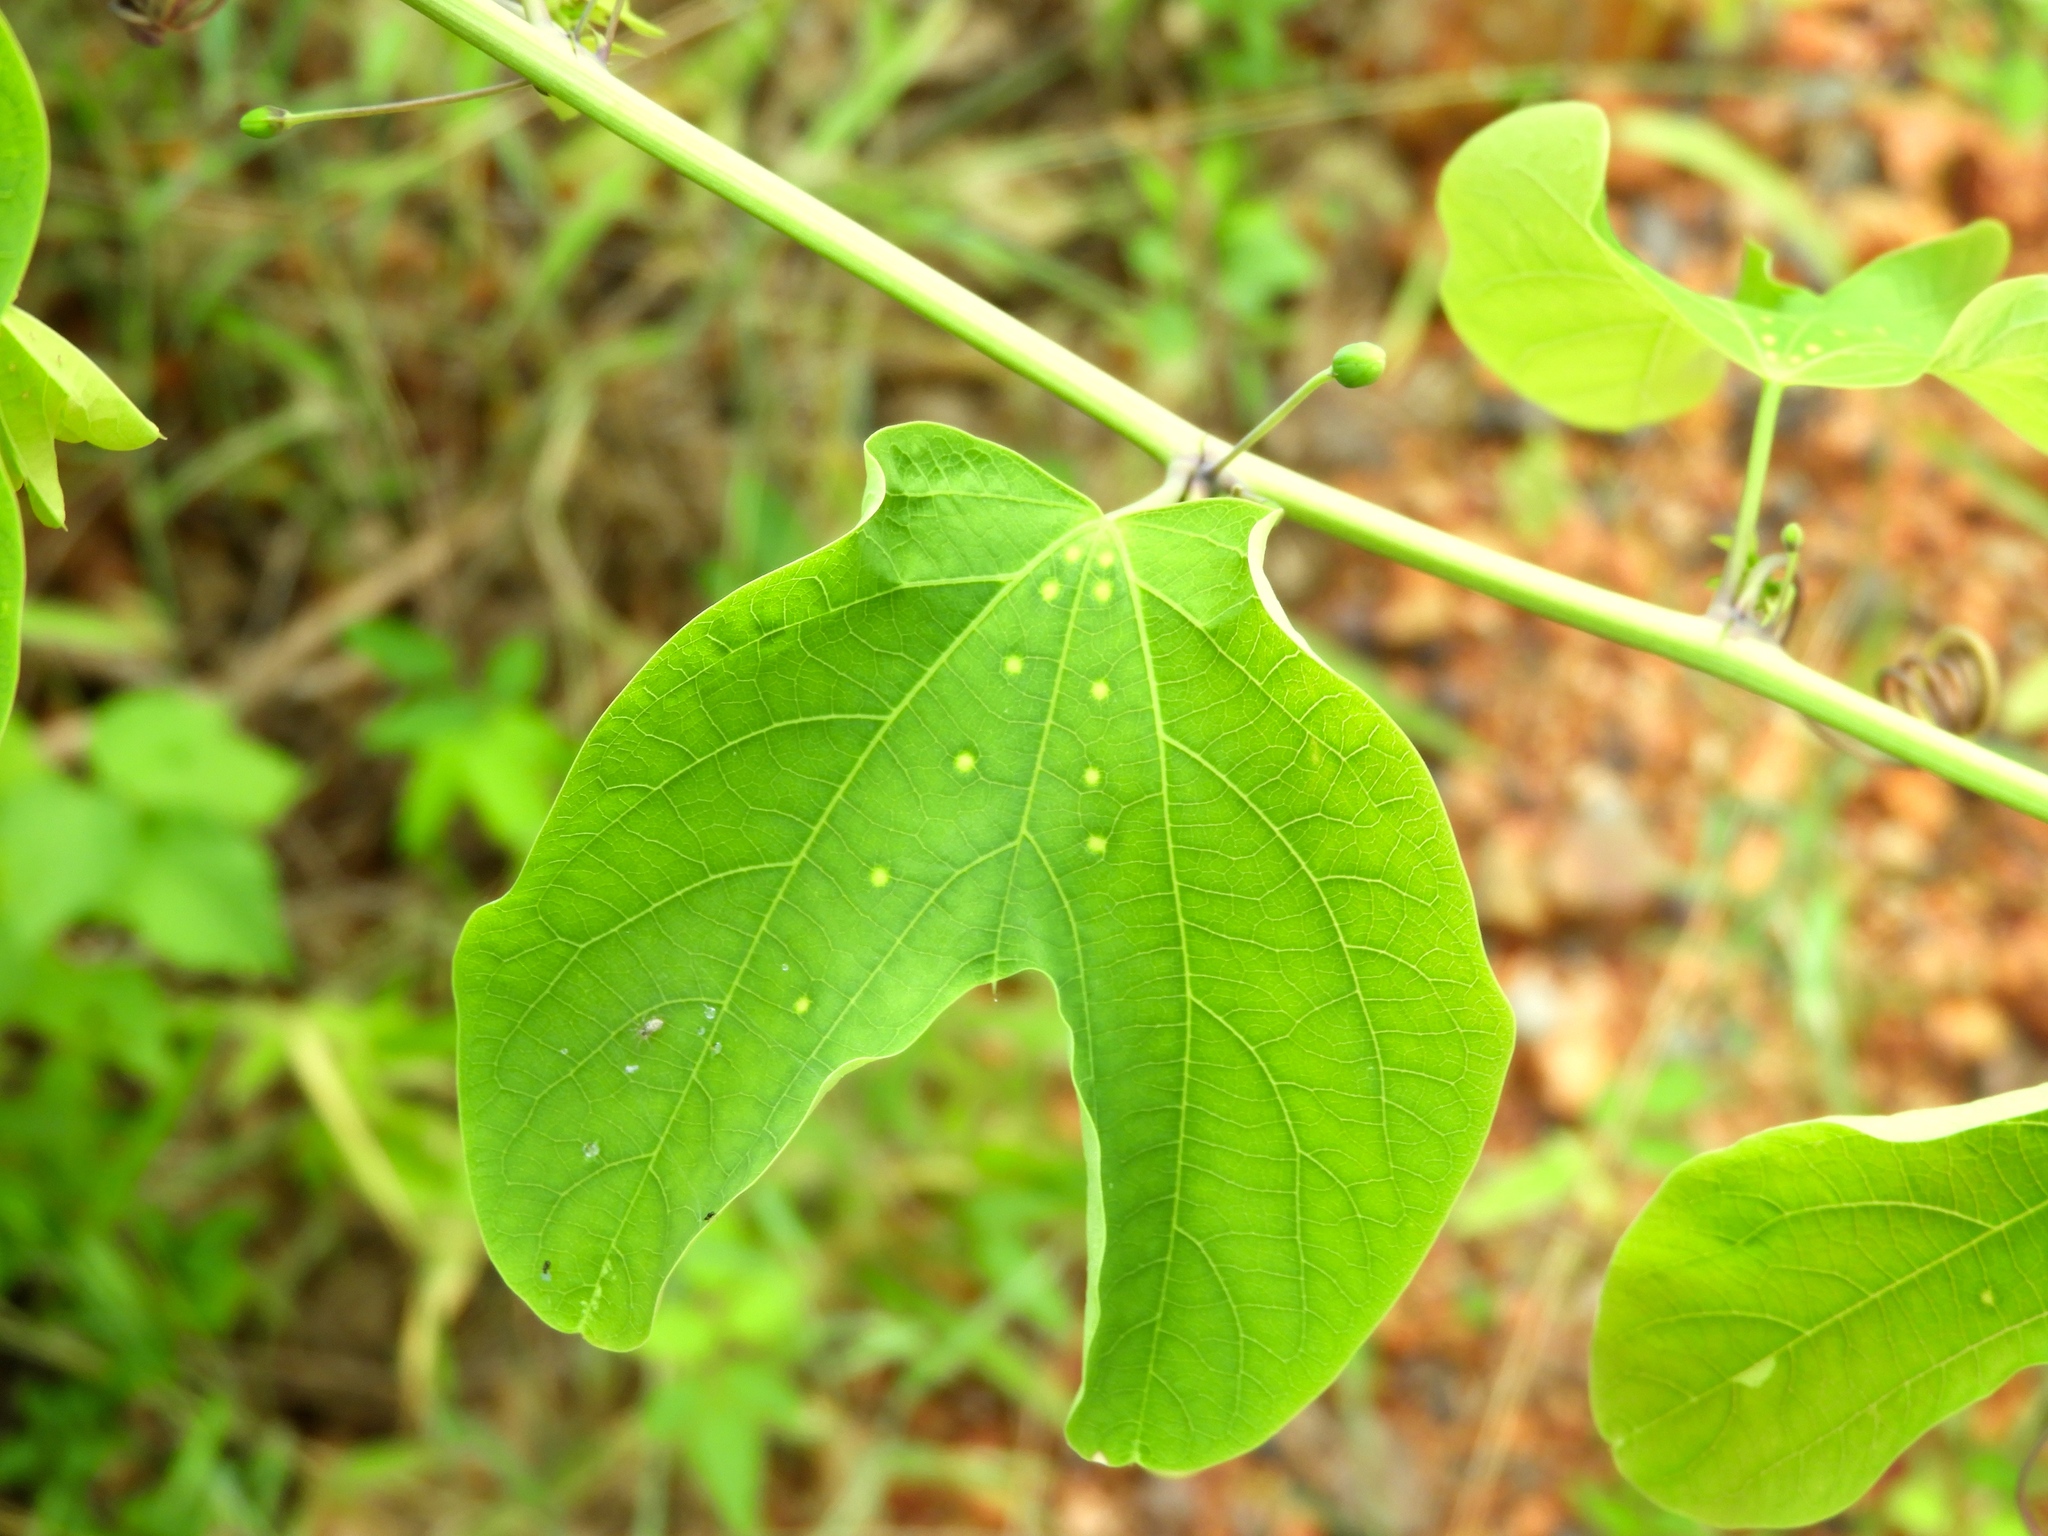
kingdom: Plantae
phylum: Tracheophyta
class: Magnoliopsida
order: Malpighiales
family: Passifloraceae
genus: Passiflora
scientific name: Passiflora mexicana
